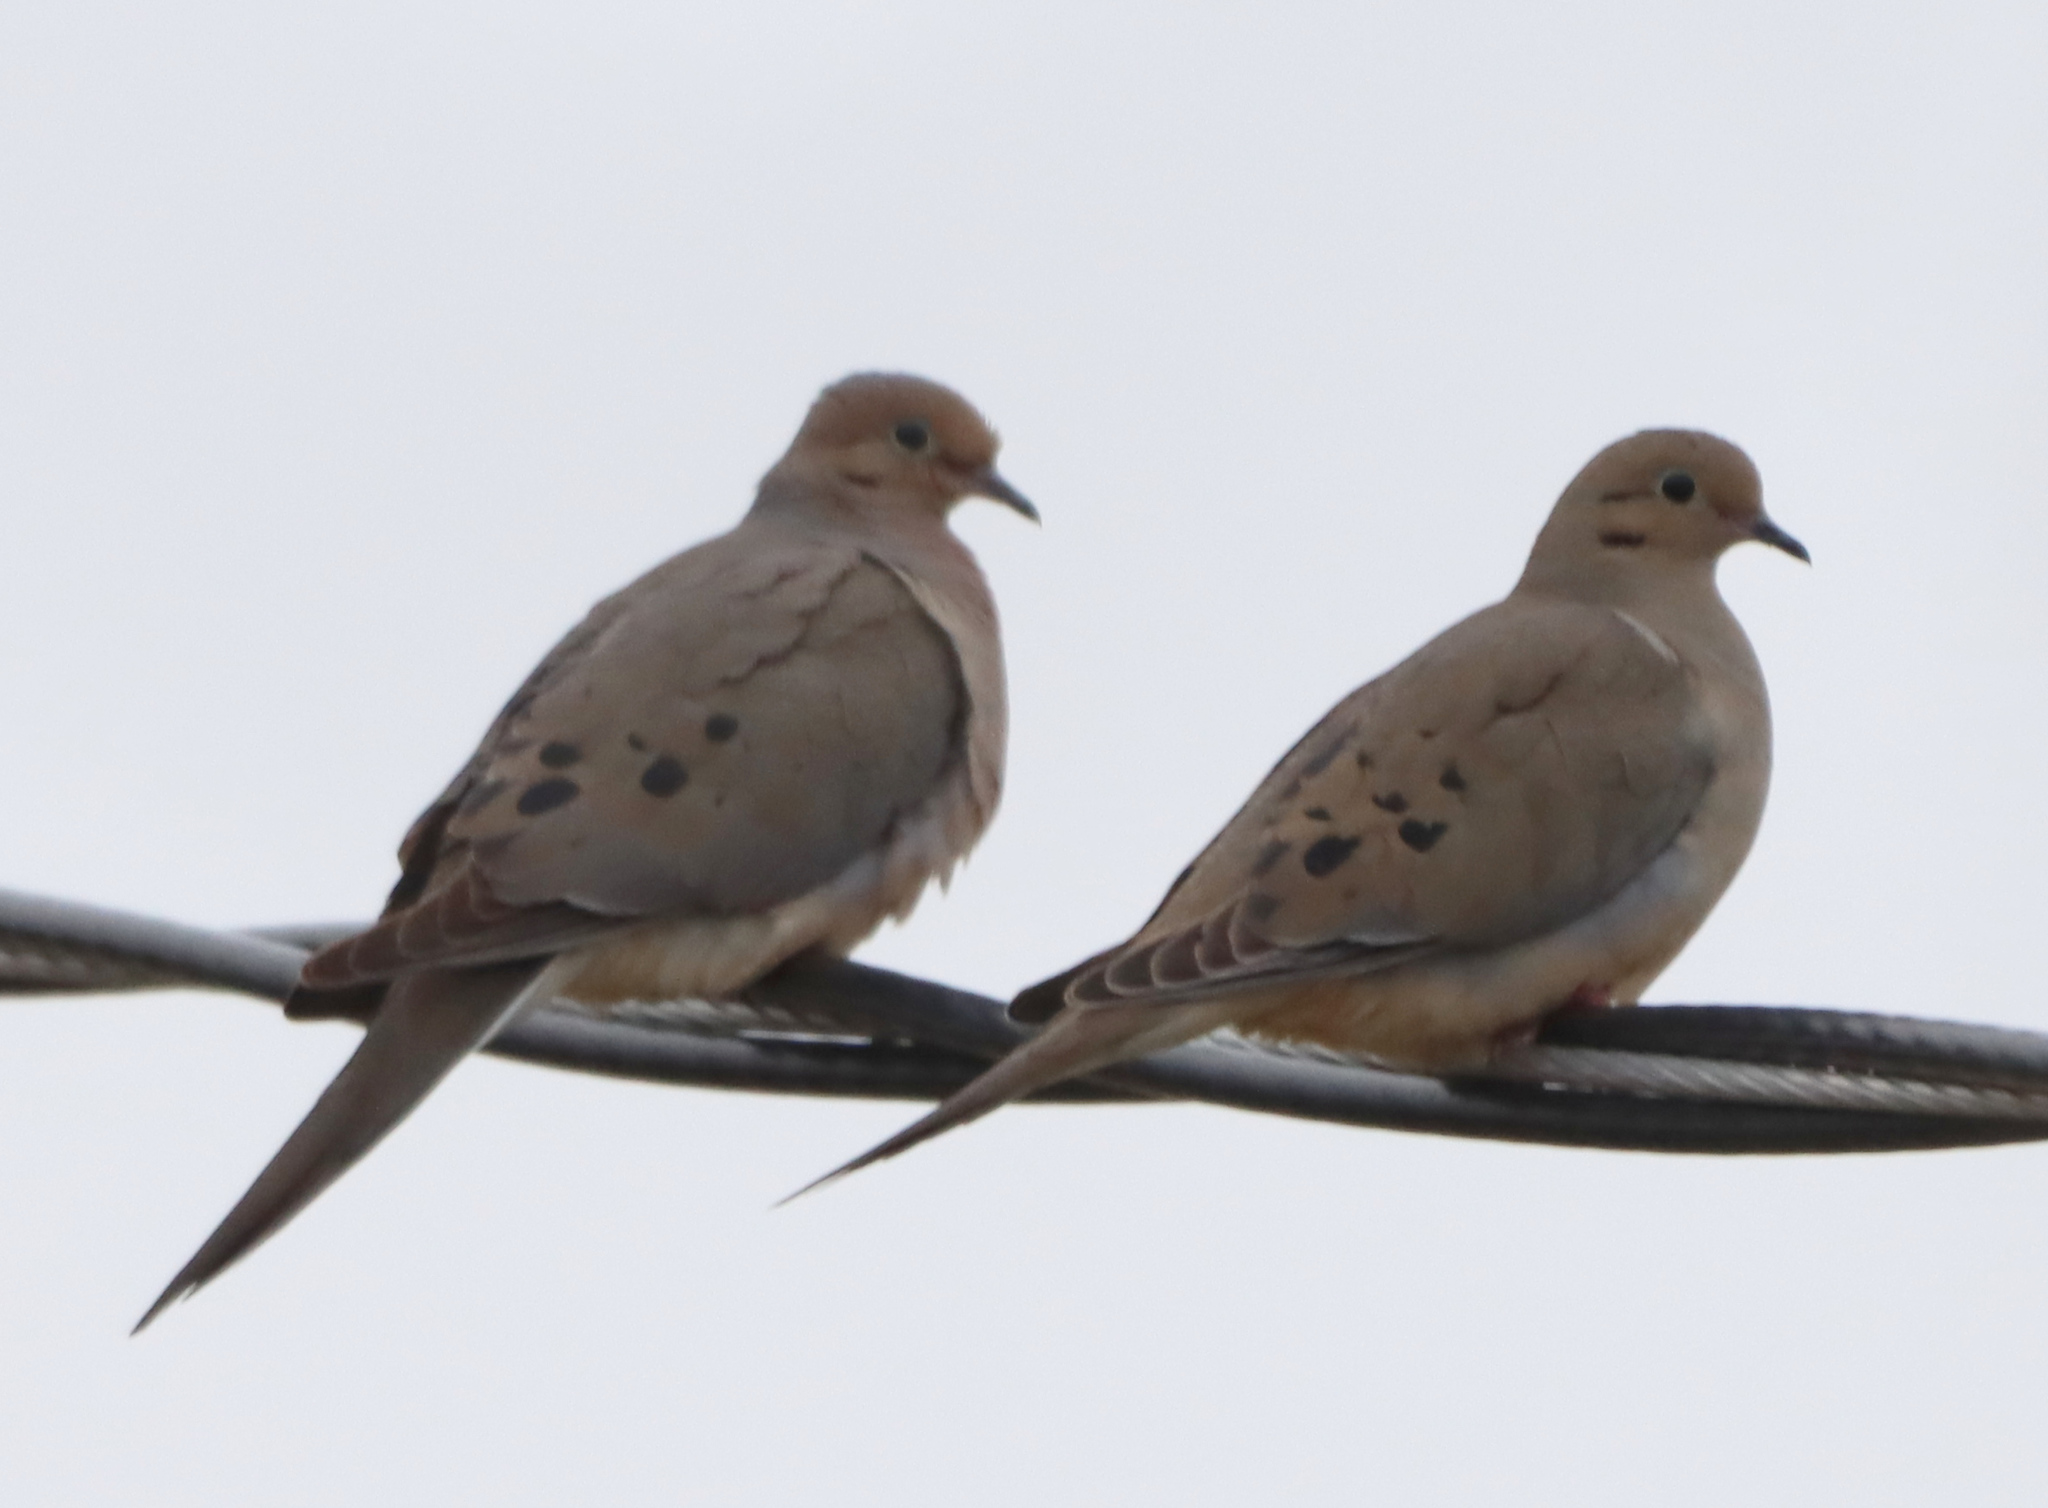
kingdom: Animalia
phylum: Chordata
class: Aves
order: Columbiformes
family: Columbidae
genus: Zenaida
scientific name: Zenaida macroura
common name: Mourning dove
